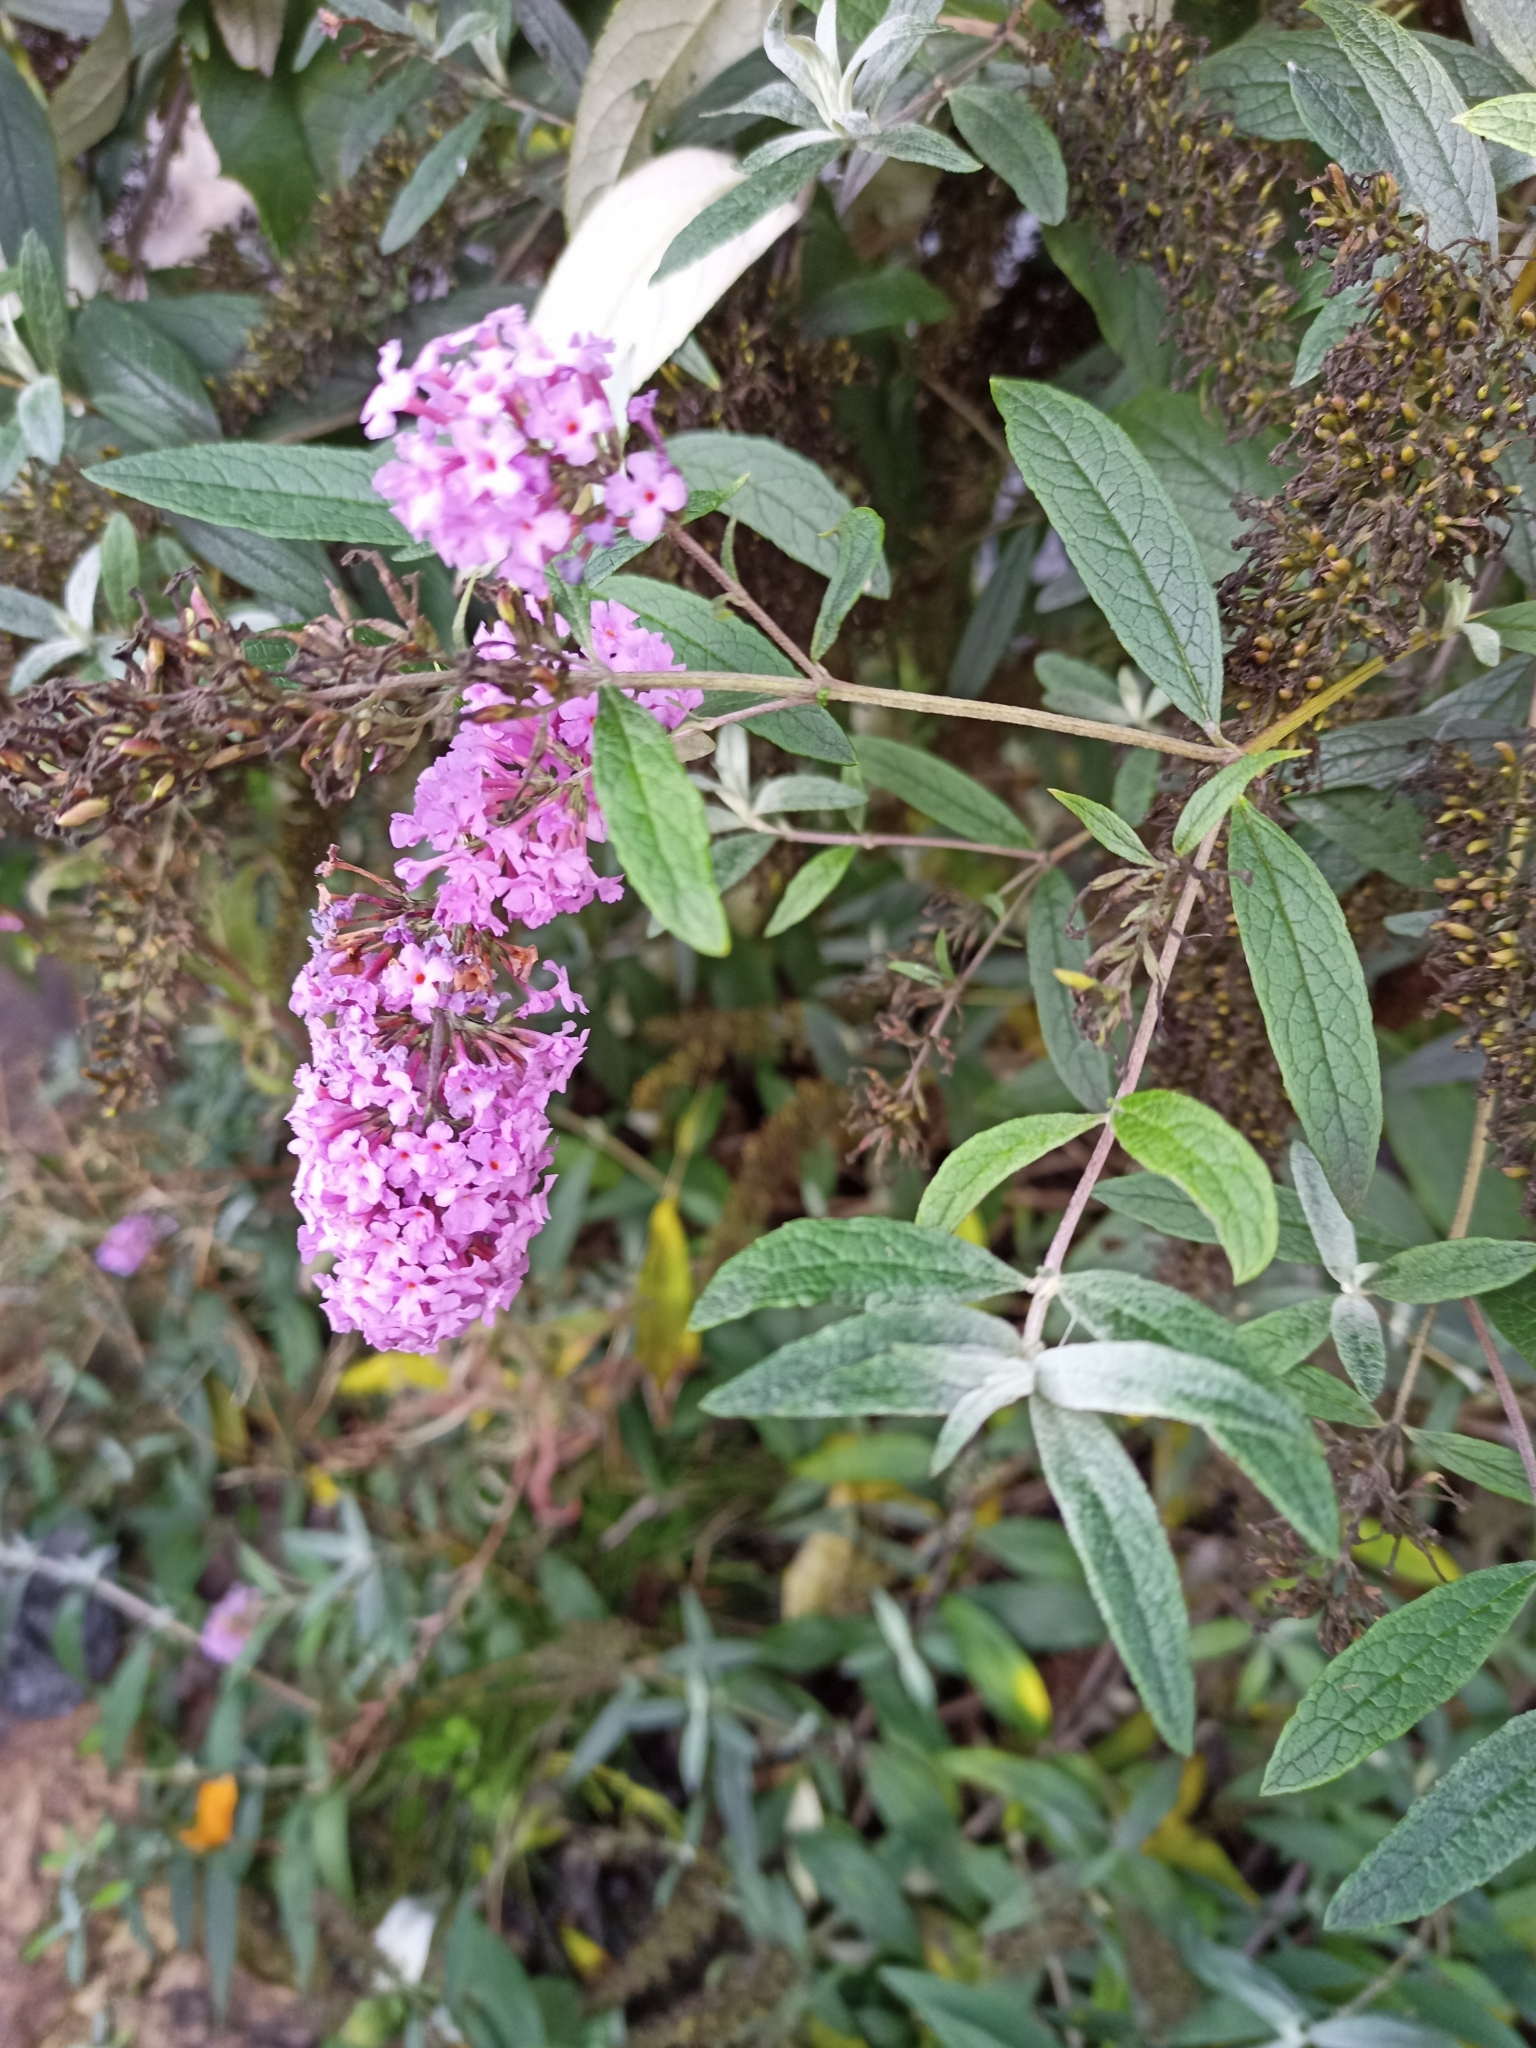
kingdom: Plantae
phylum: Tracheophyta
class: Magnoliopsida
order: Lamiales
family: Scrophulariaceae
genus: Buddleja
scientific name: Buddleja davidii
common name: Butterfly-bush
